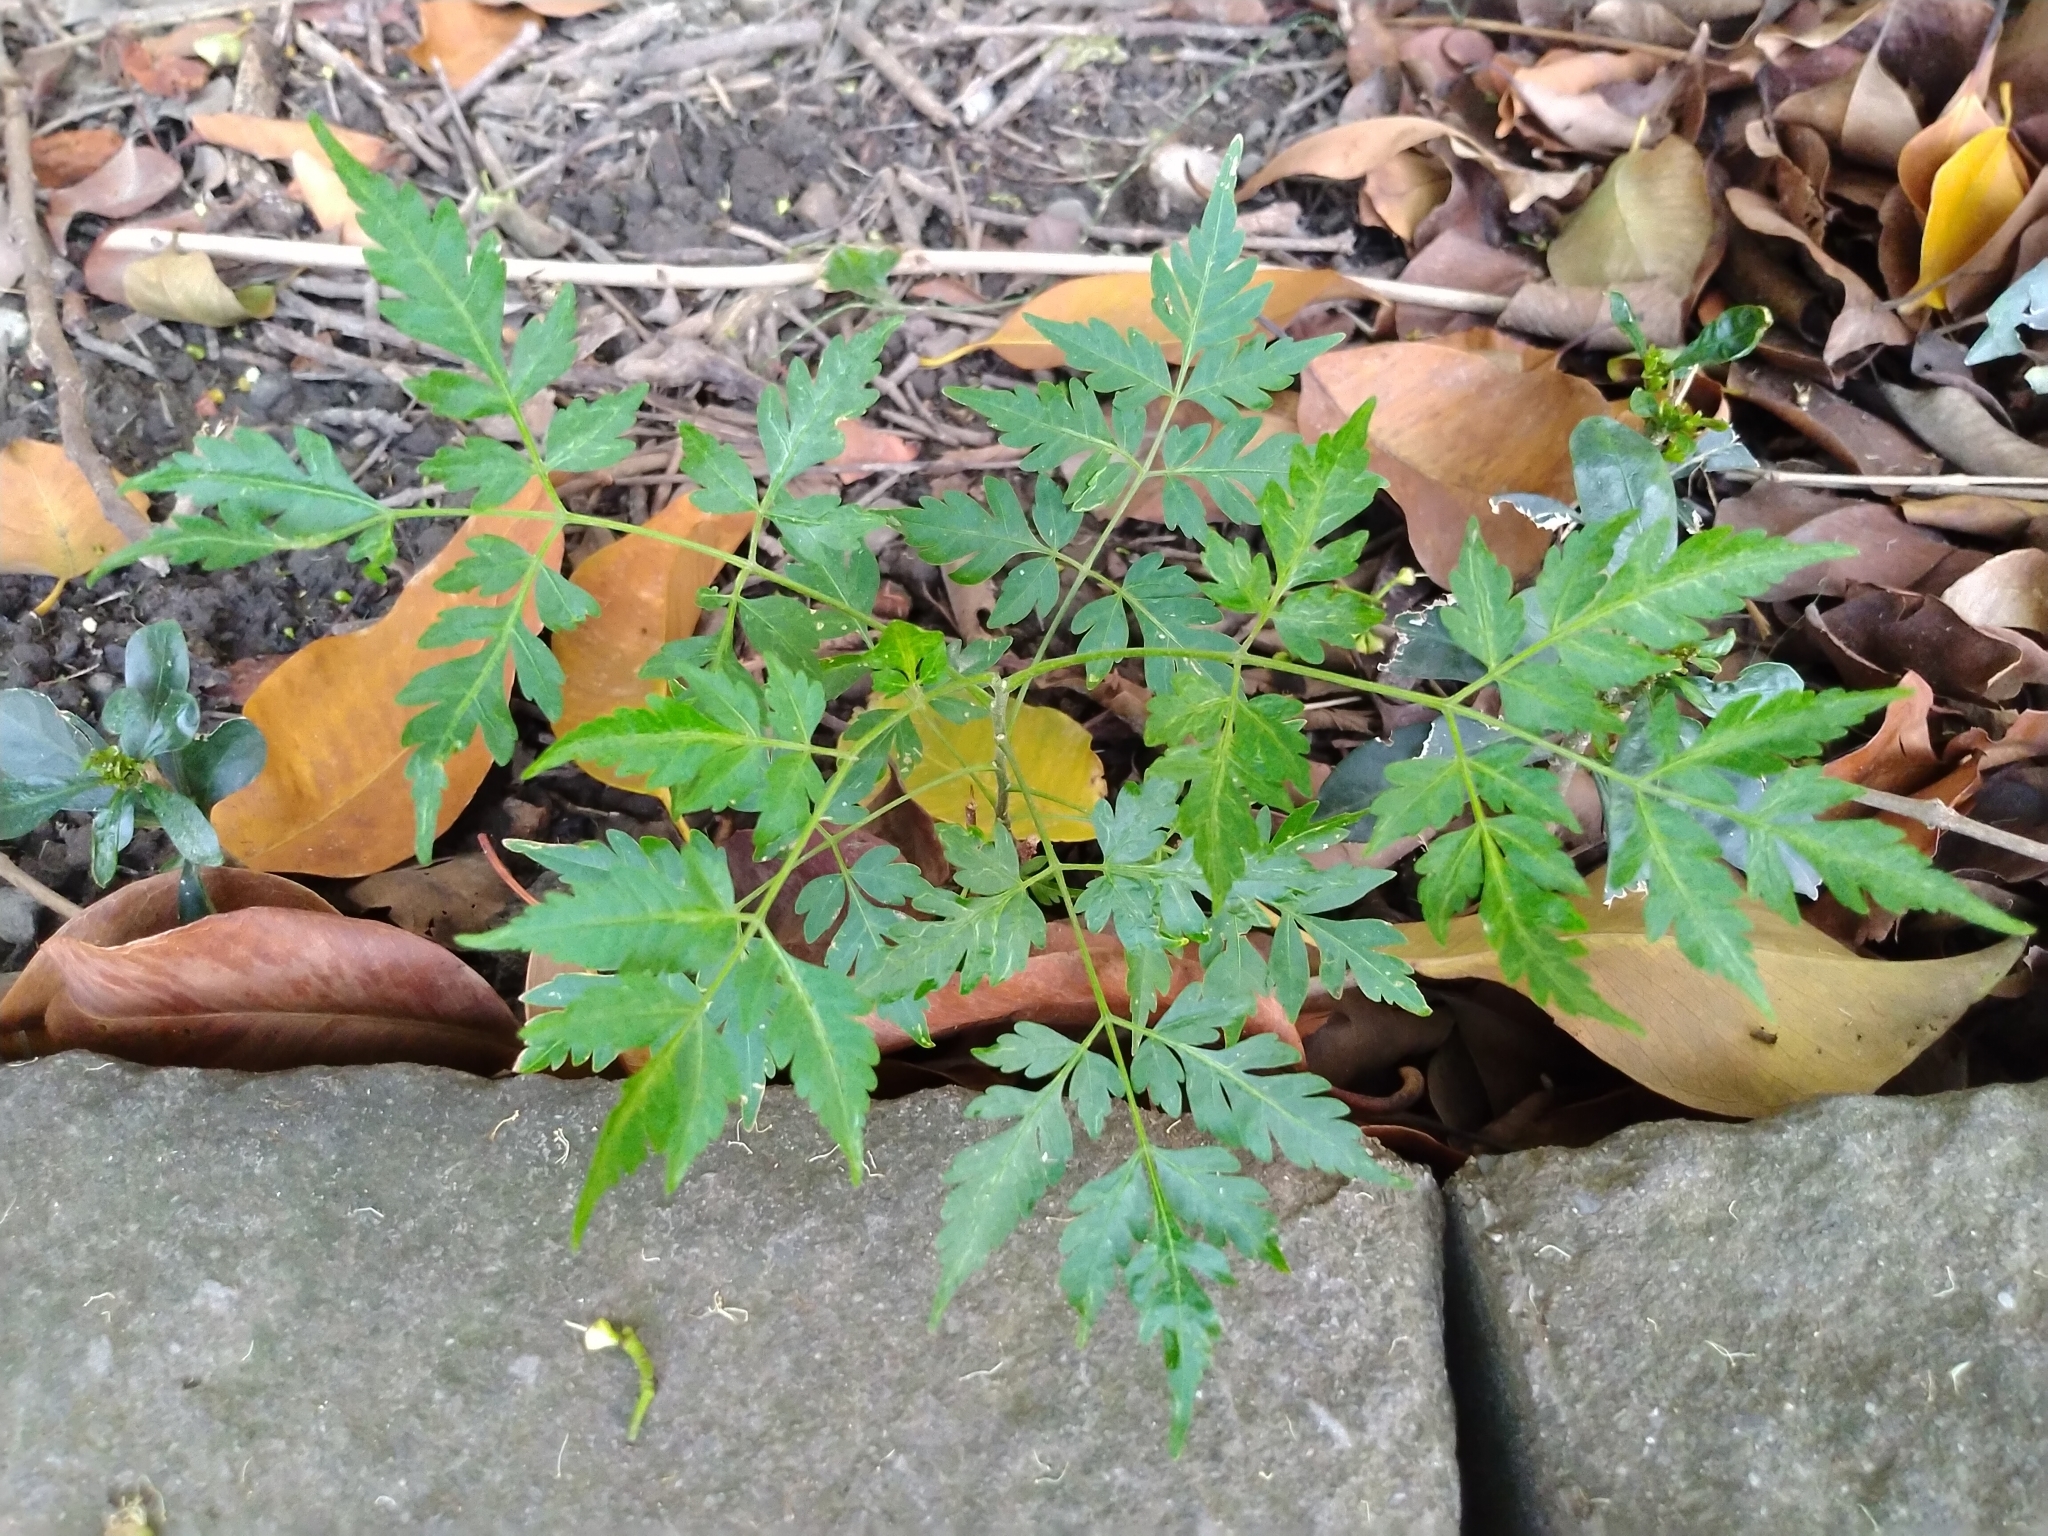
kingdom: Plantae
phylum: Tracheophyta
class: Magnoliopsida
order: Sapindales
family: Meliaceae
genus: Melia
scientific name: Melia azedarach
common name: Chinaberrytree
